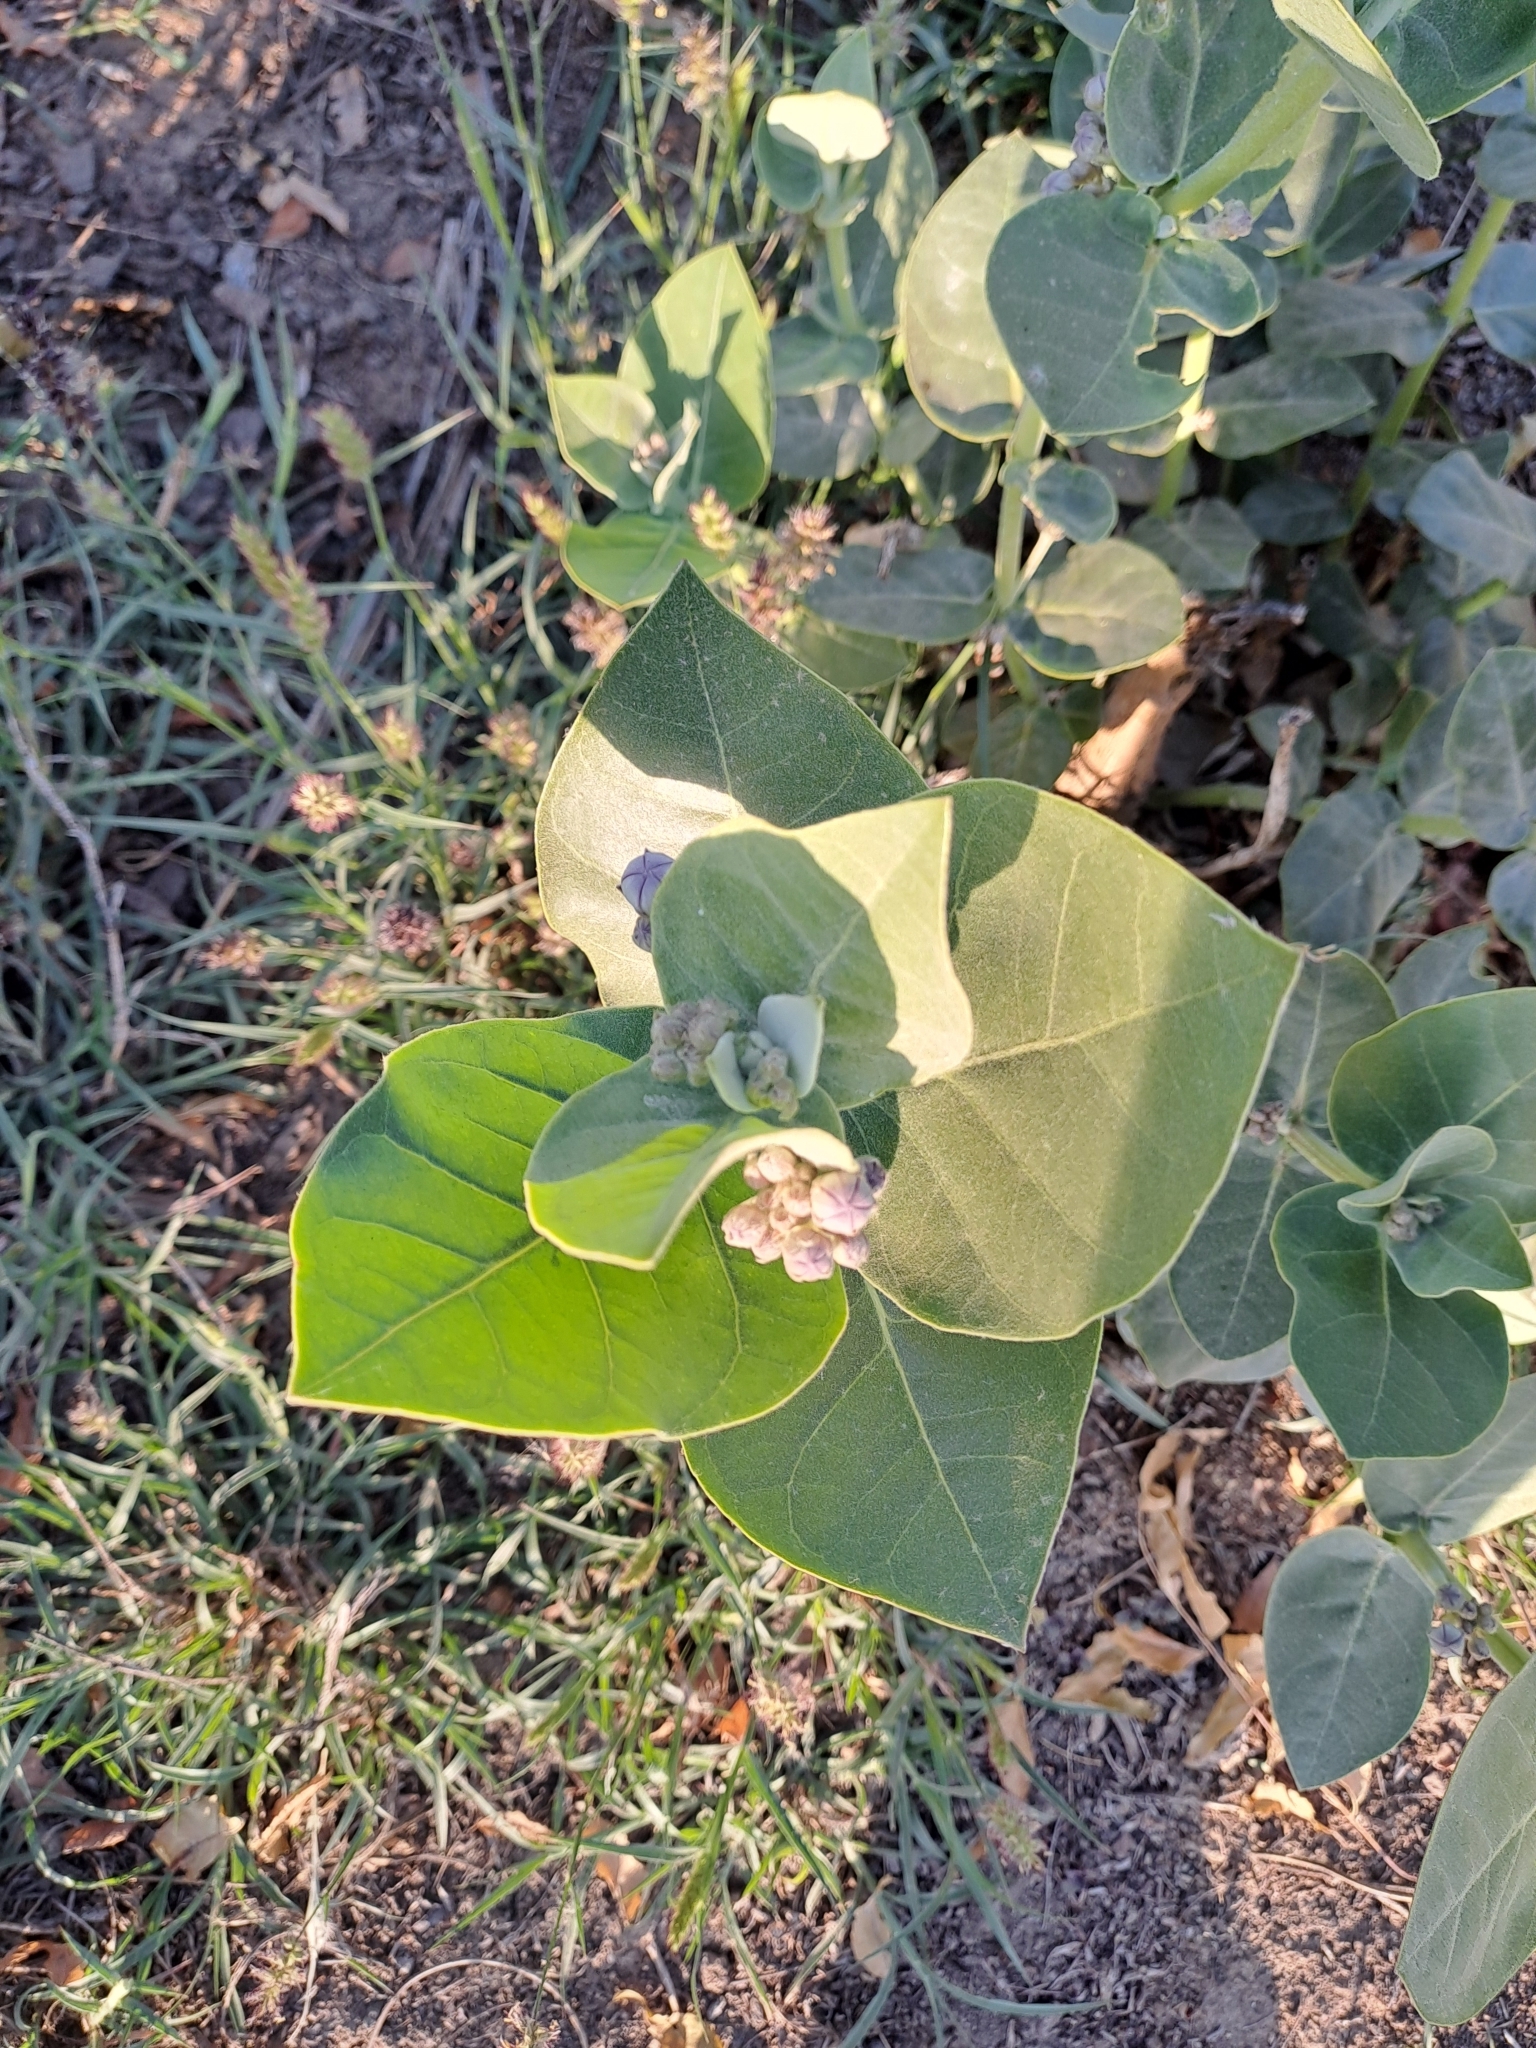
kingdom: Plantae
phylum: Tracheophyta
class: Magnoliopsida
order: Gentianales
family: Apocynaceae
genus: Calotropis
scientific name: Calotropis procera
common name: Roostertree
